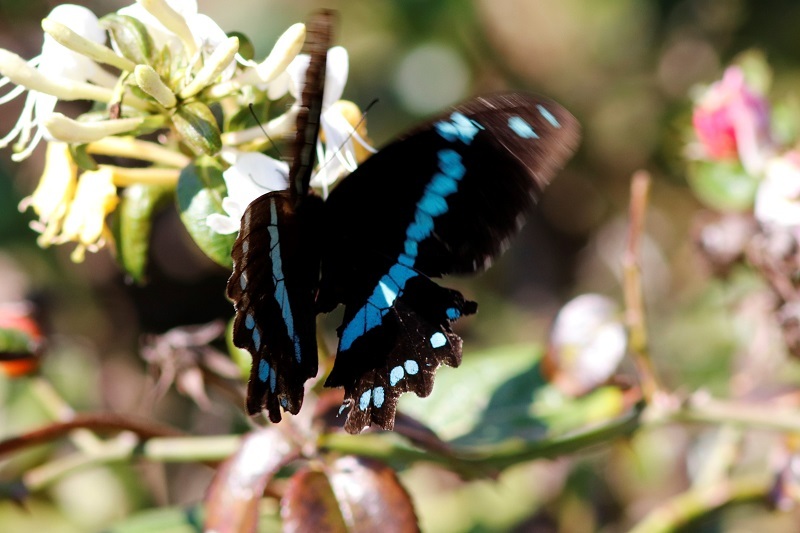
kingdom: Animalia
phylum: Arthropoda
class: Insecta
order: Lepidoptera
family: Papilionidae
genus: Papilio
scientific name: Papilio nireus
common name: Greenbanded swallowtail
